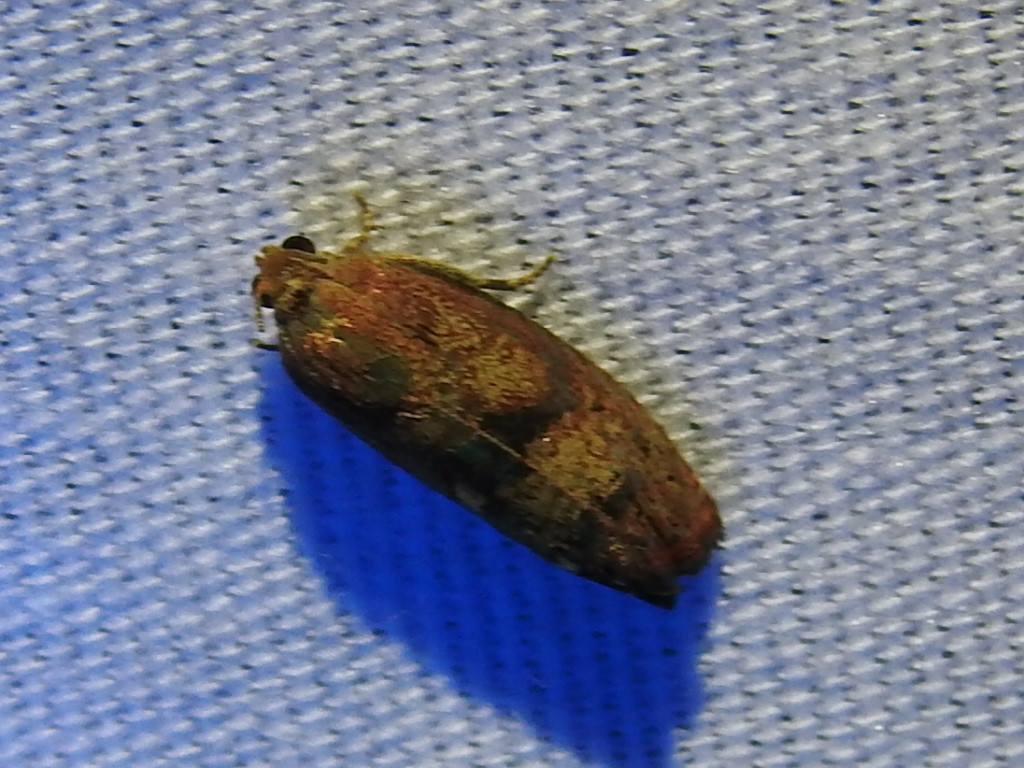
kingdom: Animalia
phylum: Arthropoda
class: Insecta
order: Lepidoptera
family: Tortricidae
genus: Cydia
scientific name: Cydia latiferreana
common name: Filbertworm moth
